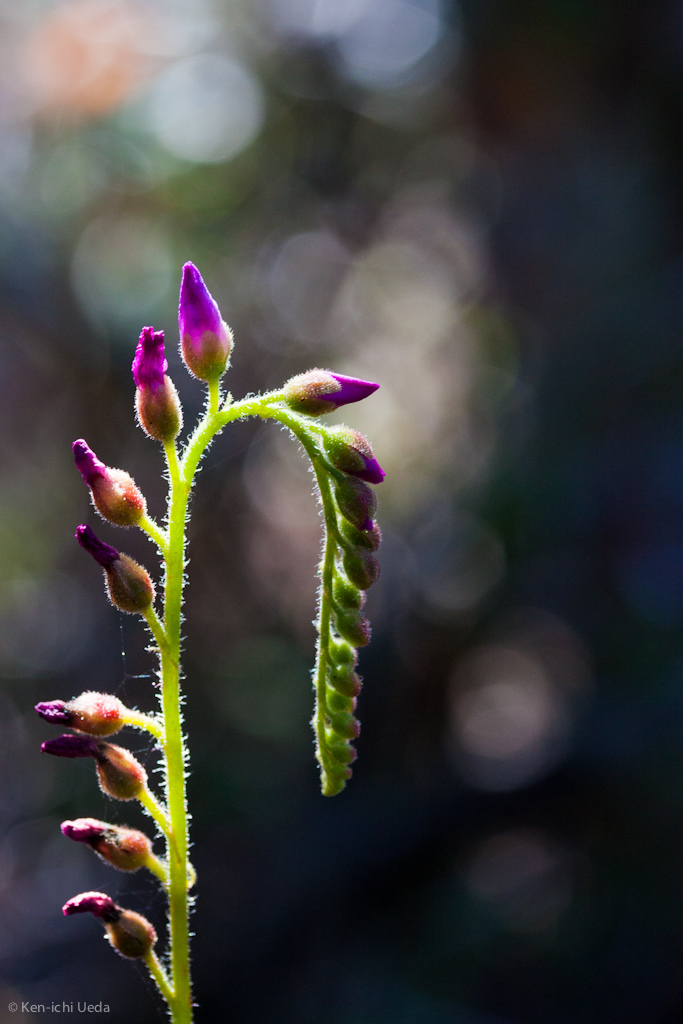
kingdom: Plantae
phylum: Tracheophyta
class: Magnoliopsida
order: Caryophyllales
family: Droseraceae
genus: Drosera
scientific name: Drosera capensis
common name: Cape sundew
